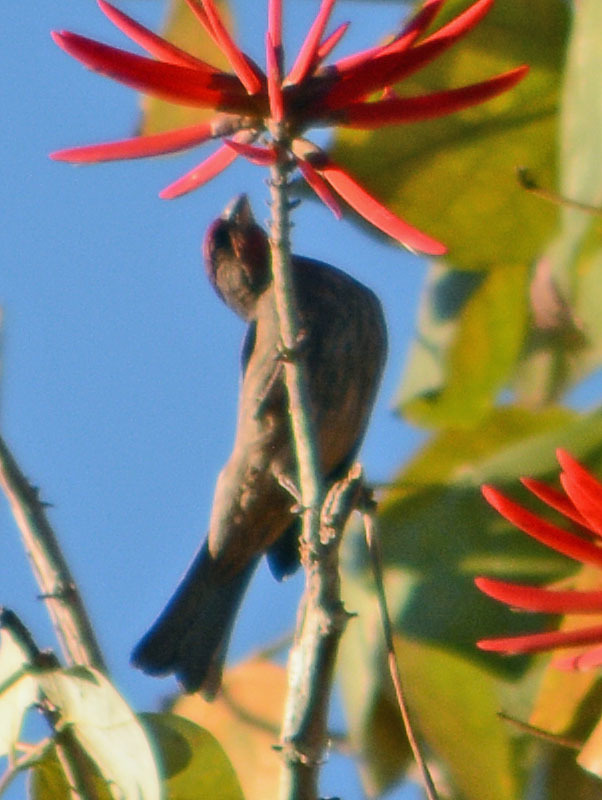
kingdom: Animalia
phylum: Chordata
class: Aves
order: Passeriformes
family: Fringillidae
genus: Haemorhous
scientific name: Haemorhous mexicanus
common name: House finch
